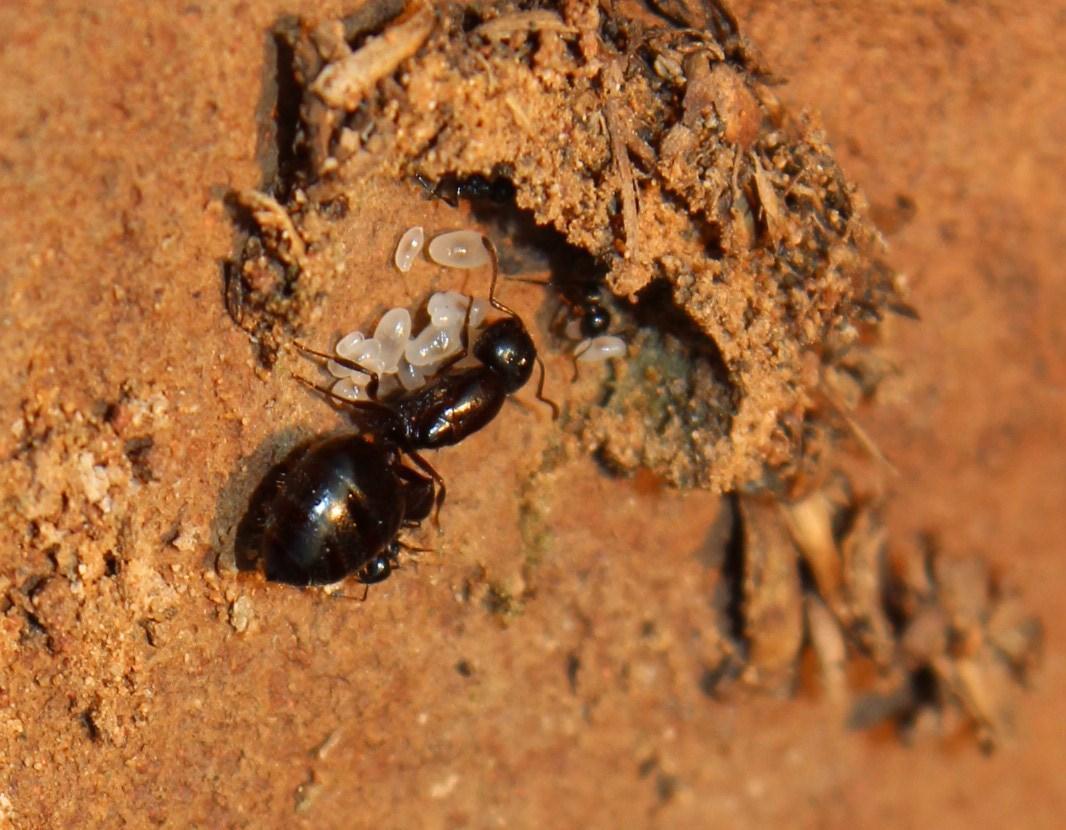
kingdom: Animalia
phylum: Arthropoda
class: Insecta
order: Hymenoptera
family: Formicidae
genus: Crematogaster
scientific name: Crematogaster peringueyi
